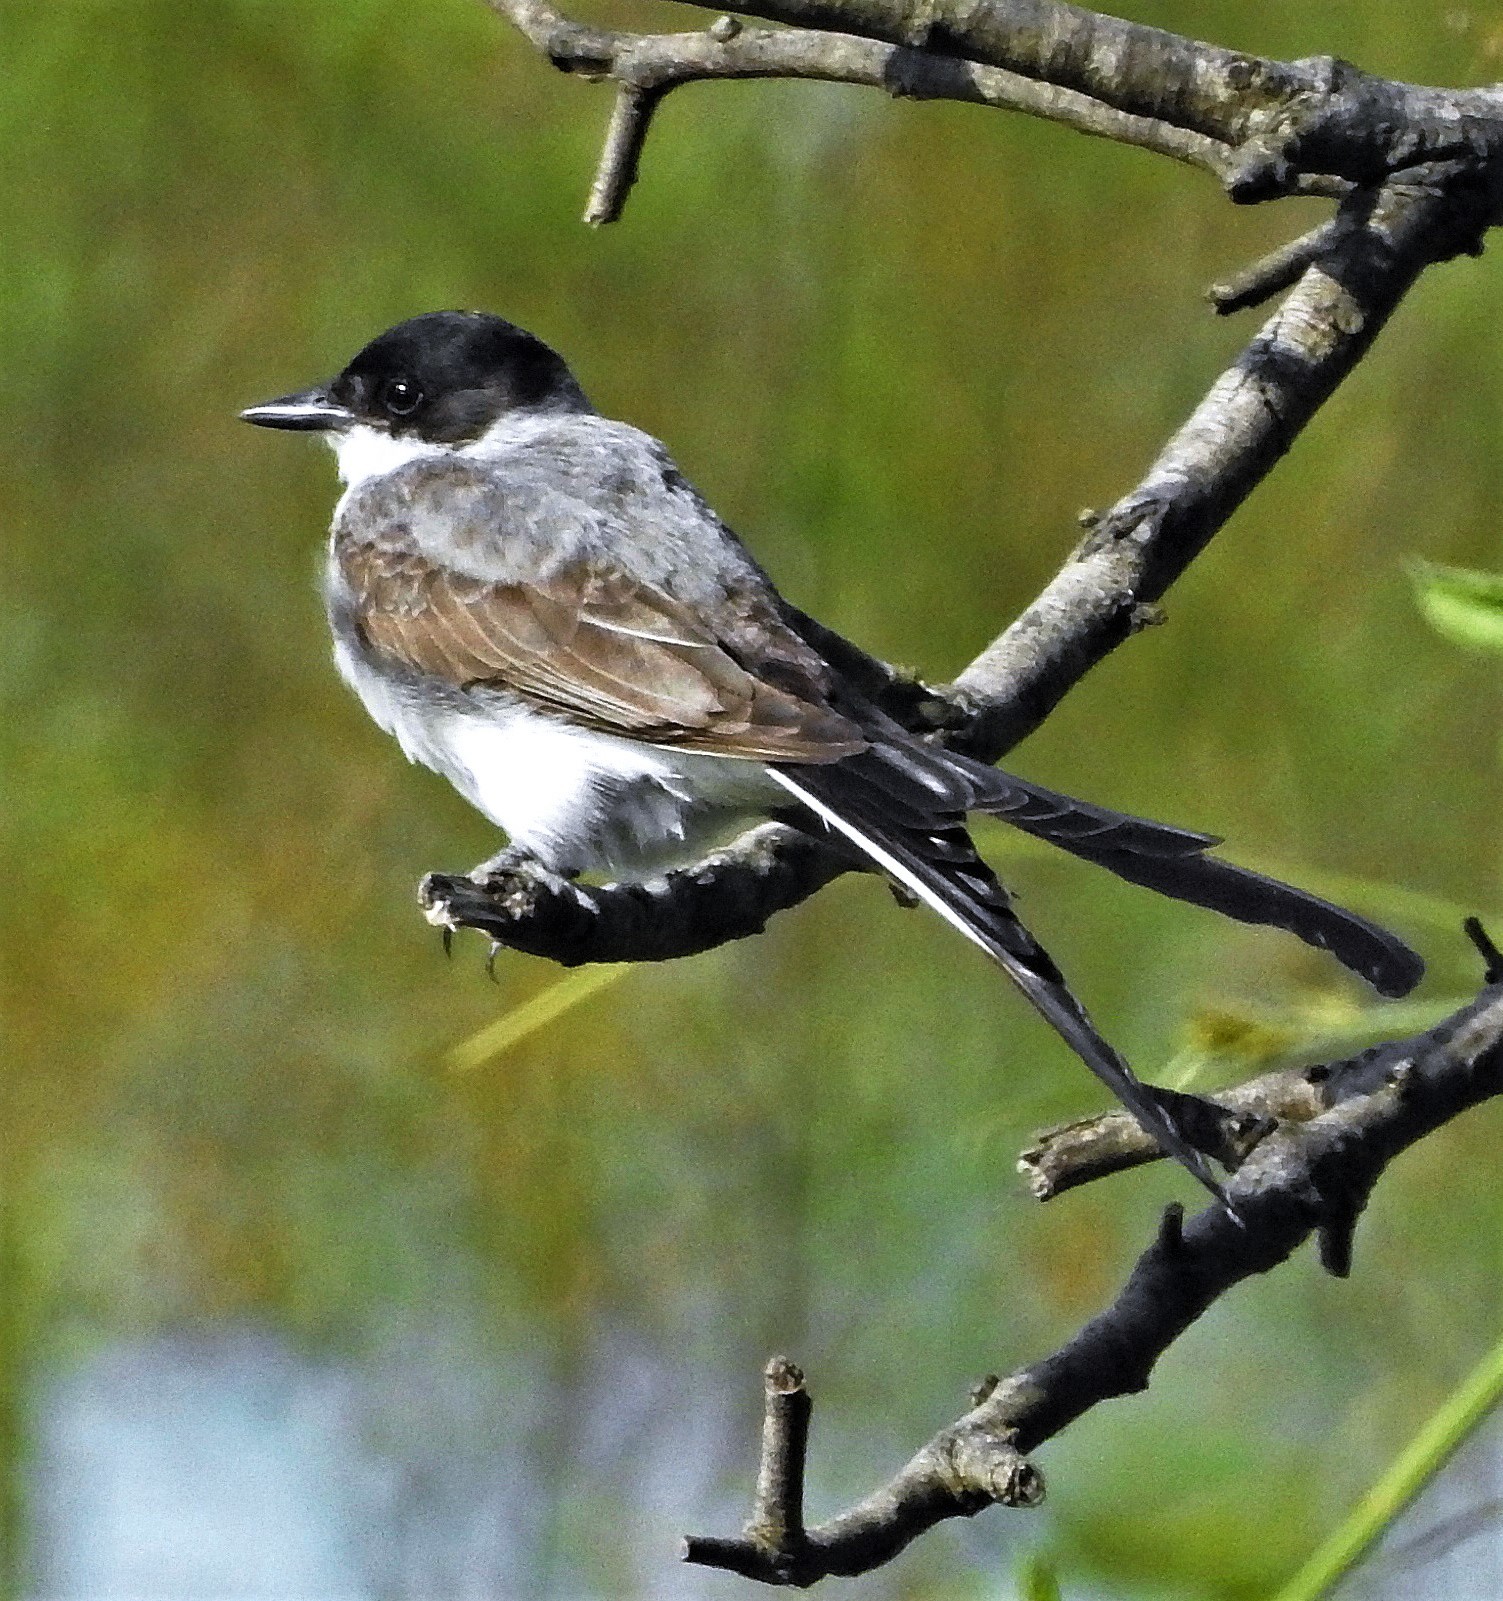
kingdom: Animalia
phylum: Chordata
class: Aves
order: Passeriformes
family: Tyrannidae
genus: Tyrannus
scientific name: Tyrannus savana
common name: Fork-tailed flycatcher
